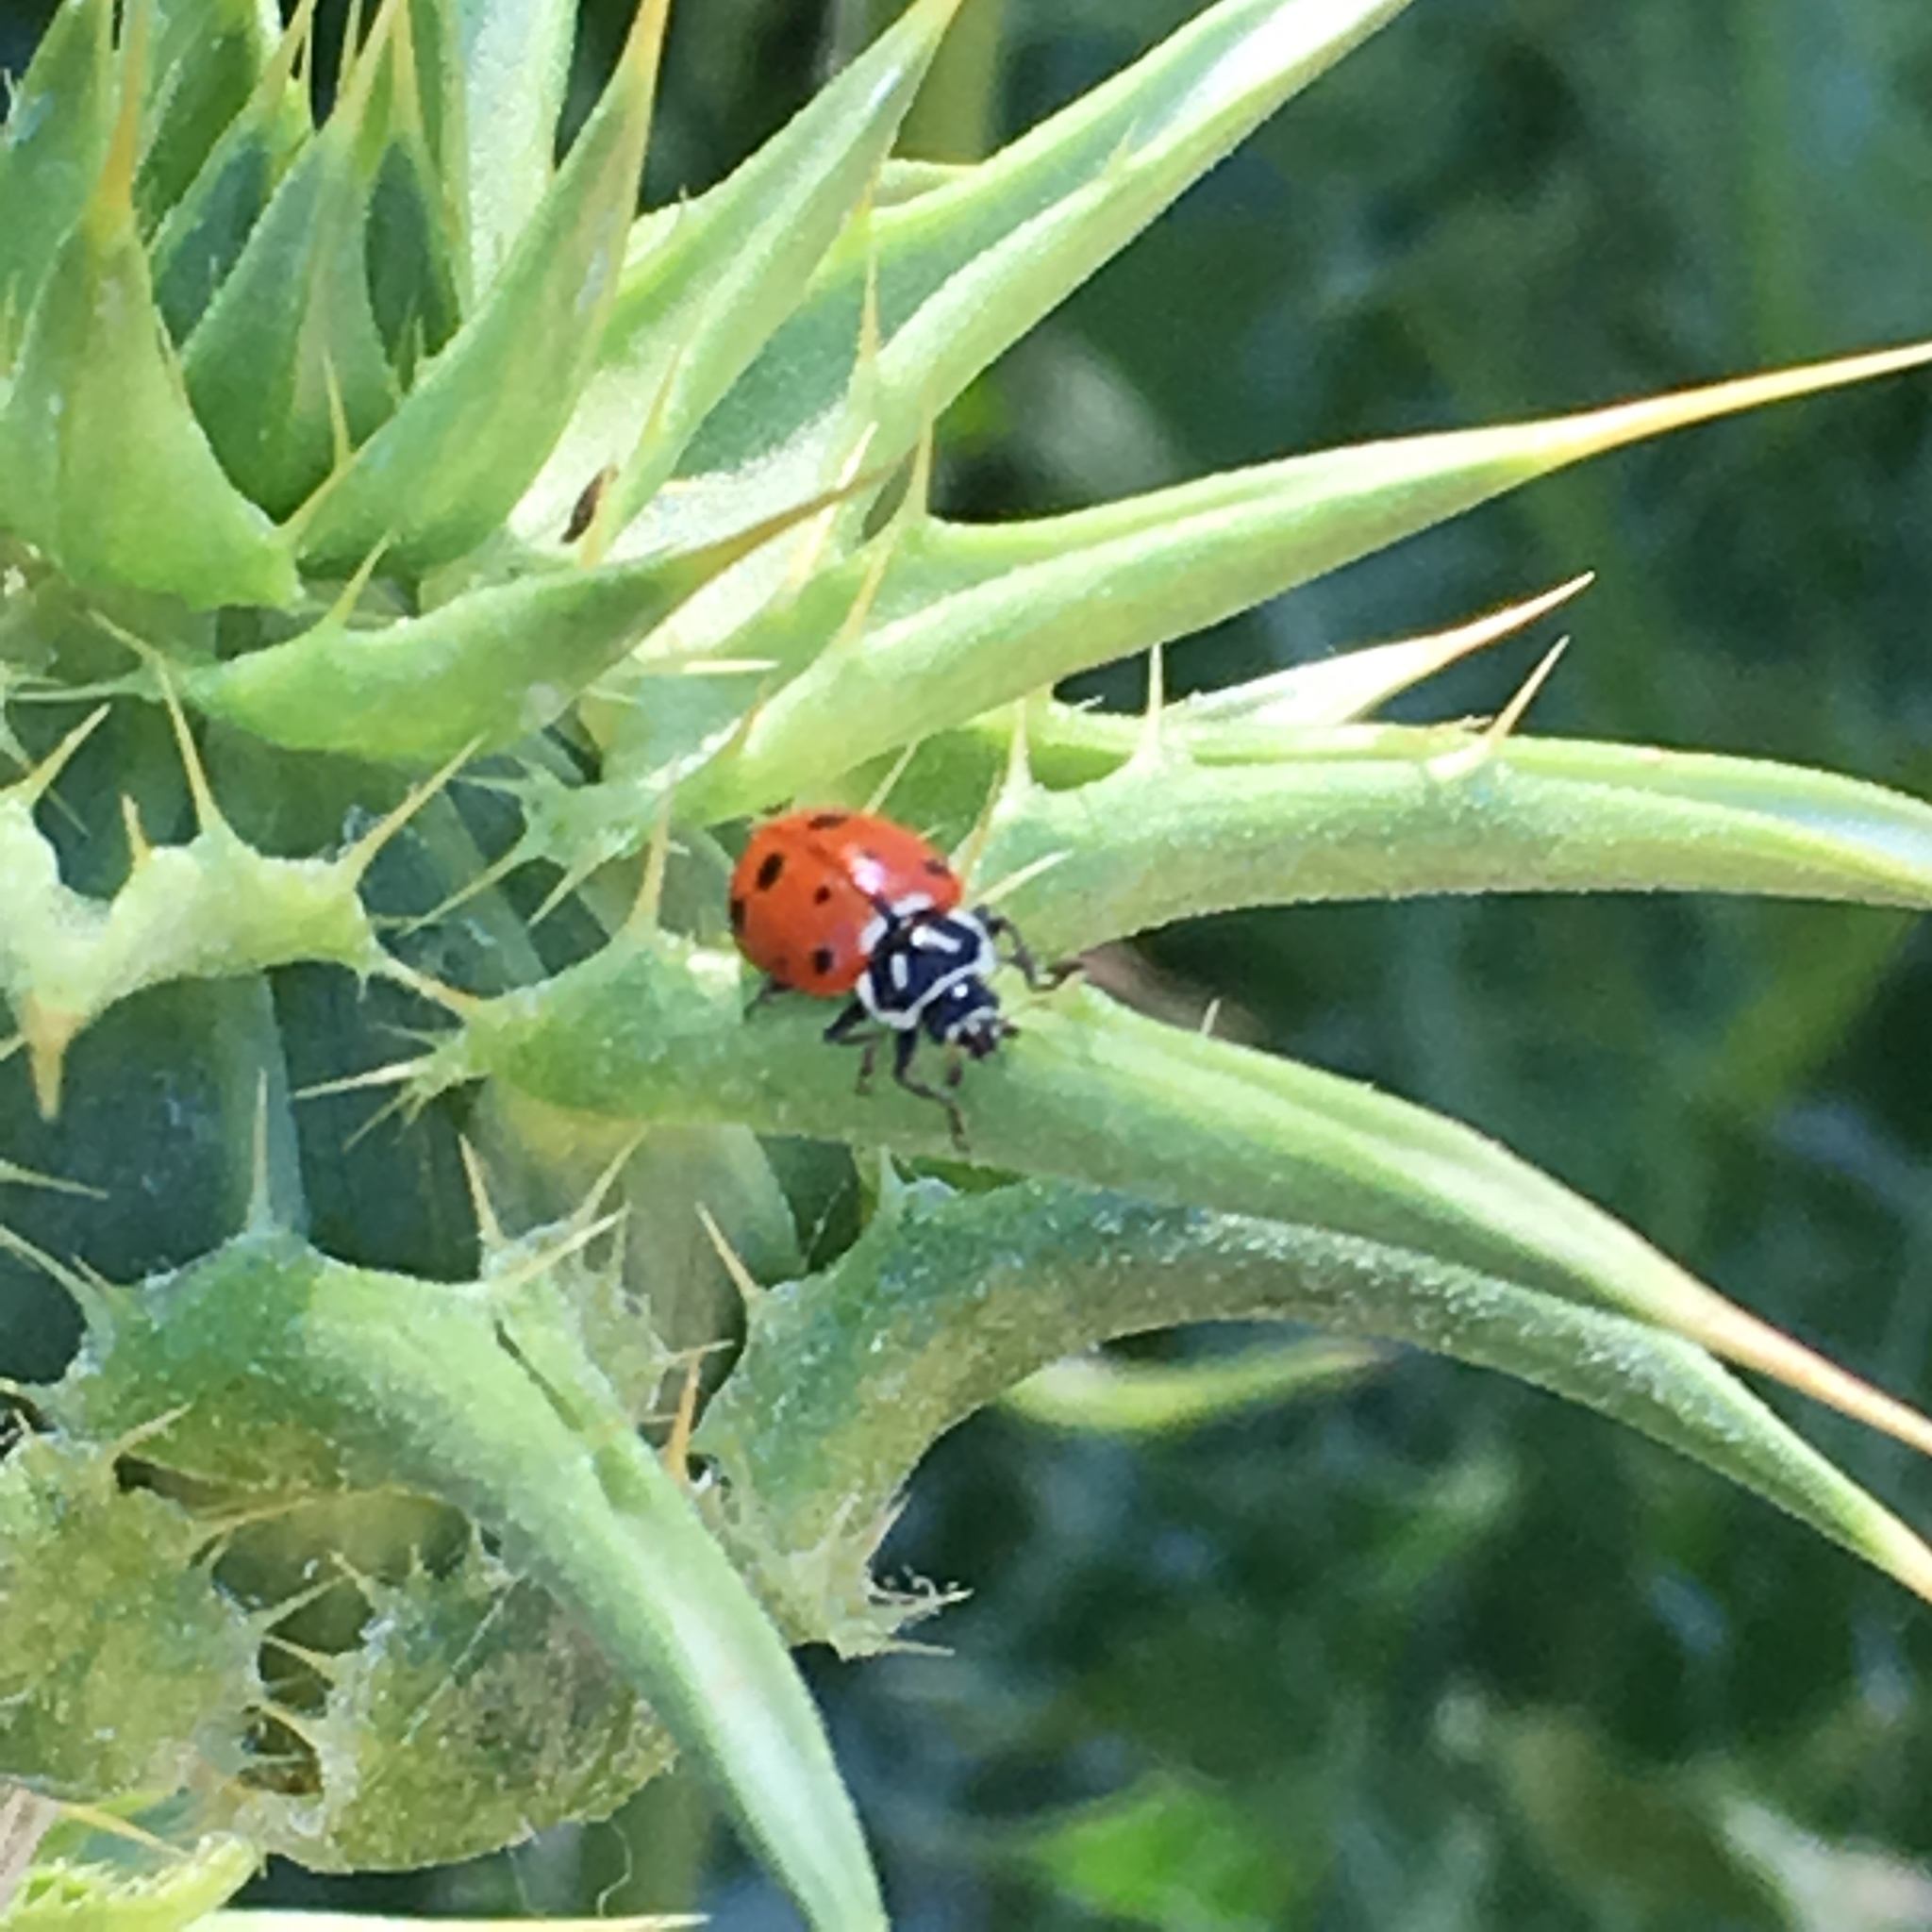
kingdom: Animalia
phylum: Arthropoda
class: Insecta
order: Coleoptera
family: Coccinellidae
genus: Hippodamia
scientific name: Hippodamia convergens
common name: Convergent lady beetle
